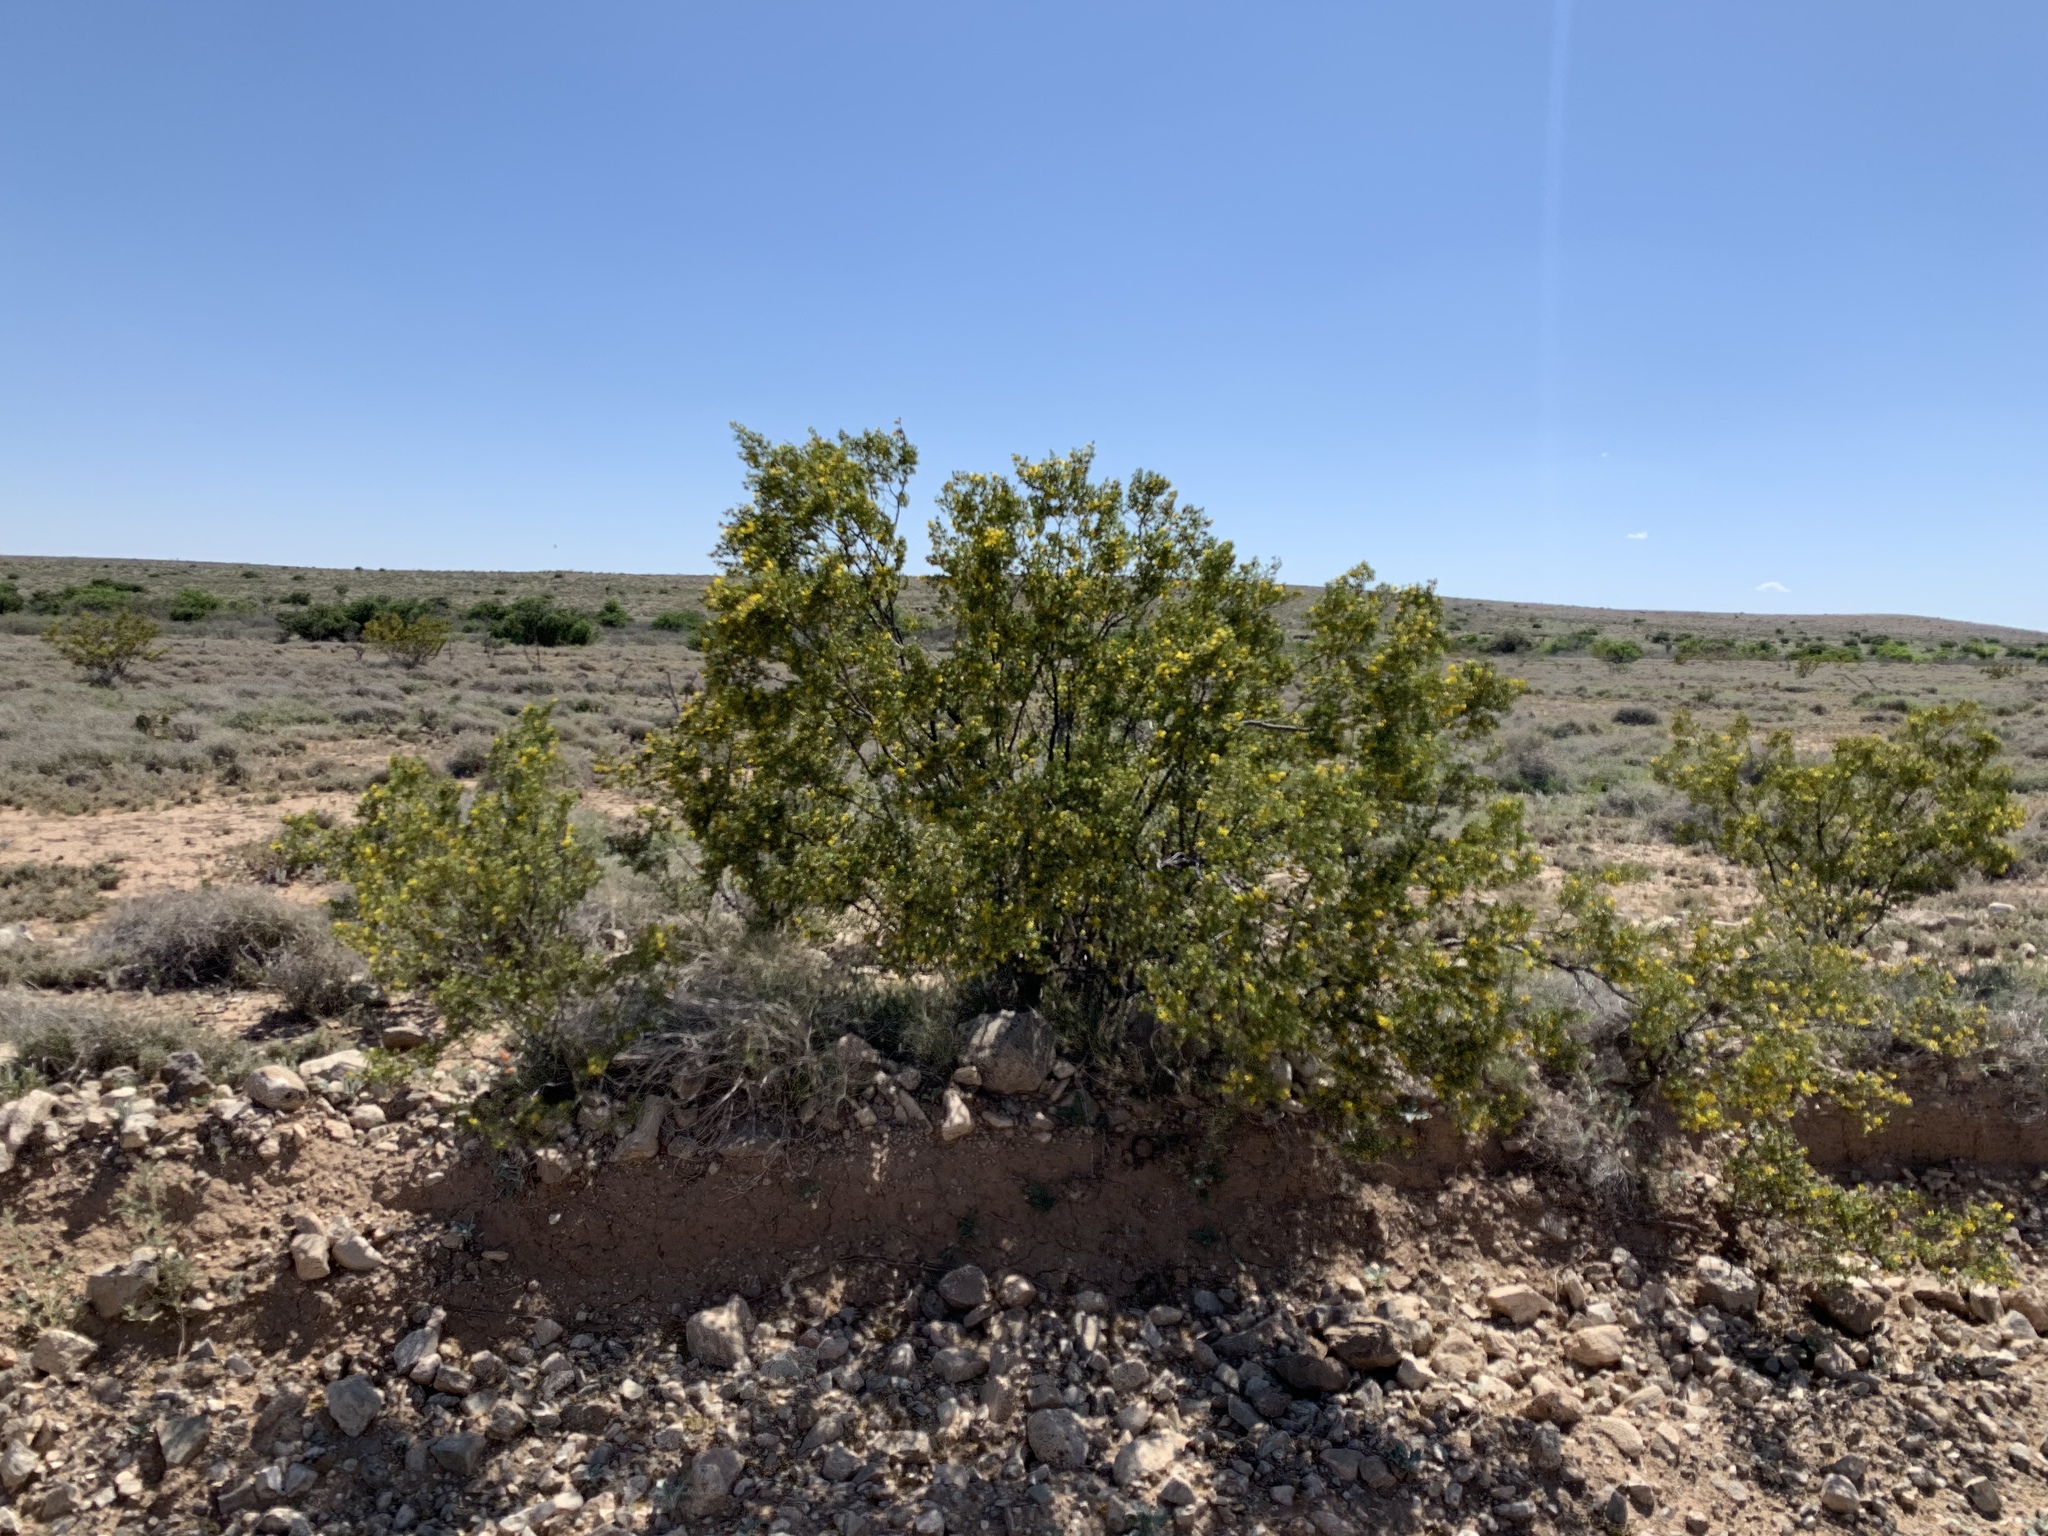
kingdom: Plantae
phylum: Tracheophyta
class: Magnoliopsida
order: Zygophyllales
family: Zygophyllaceae
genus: Larrea
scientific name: Larrea tridentata
